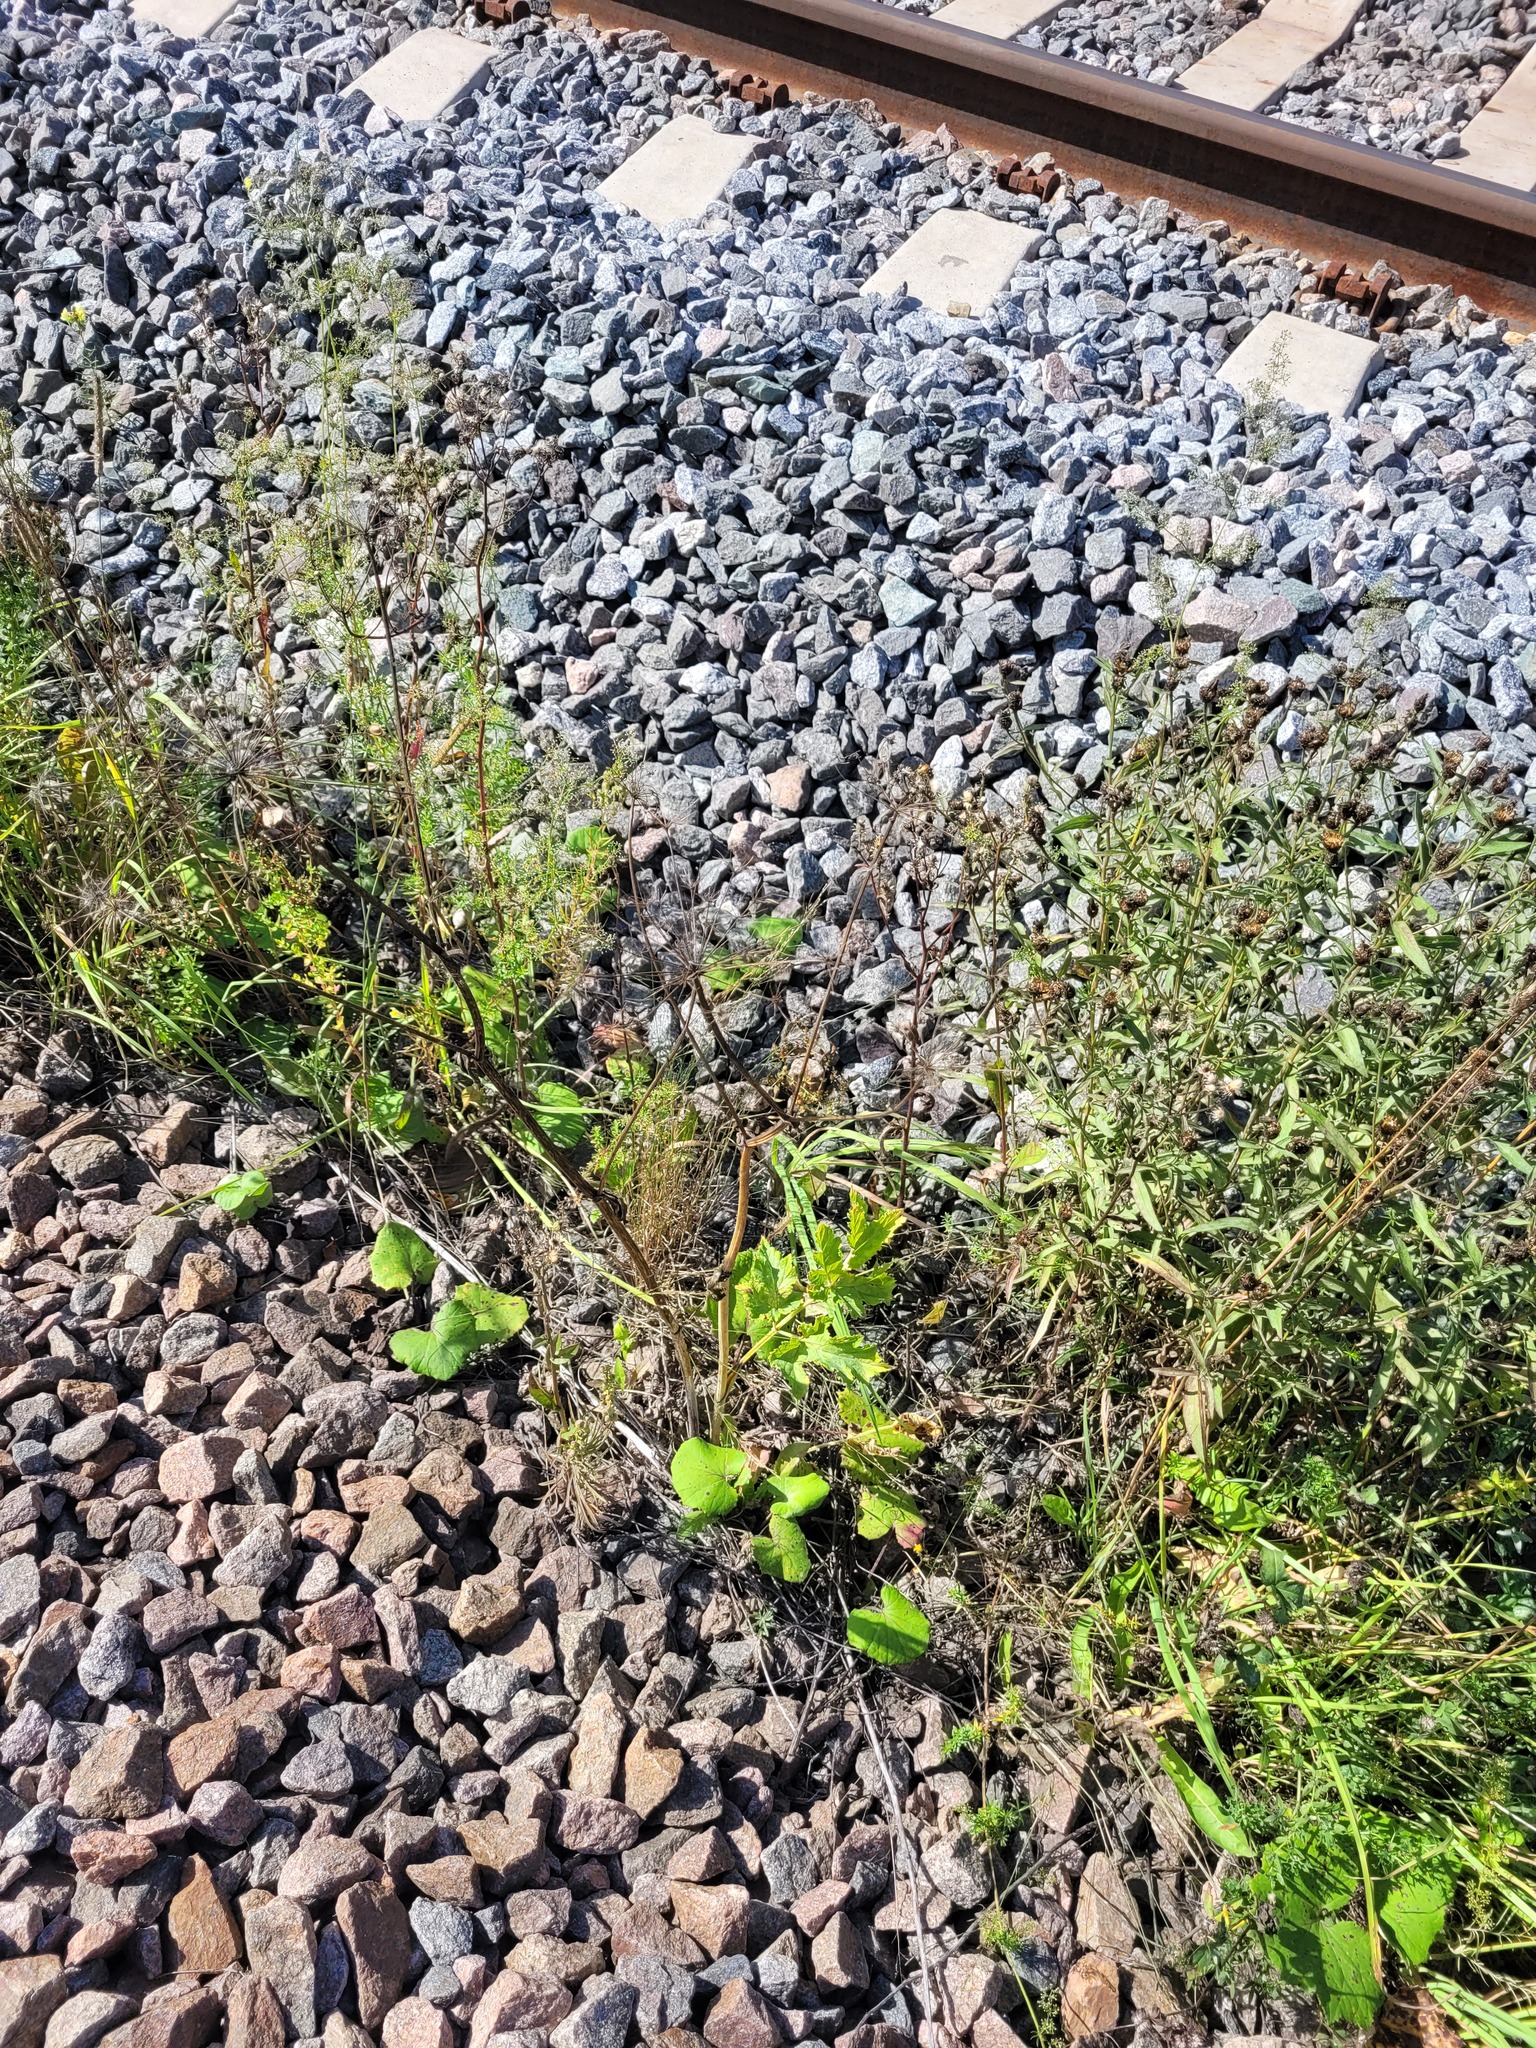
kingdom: Plantae
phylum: Tracheophyta
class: Magnoliopsida
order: Apiales
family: Apiaceae
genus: Heracleum
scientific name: Heracleum sphondylium
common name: Hogweed
